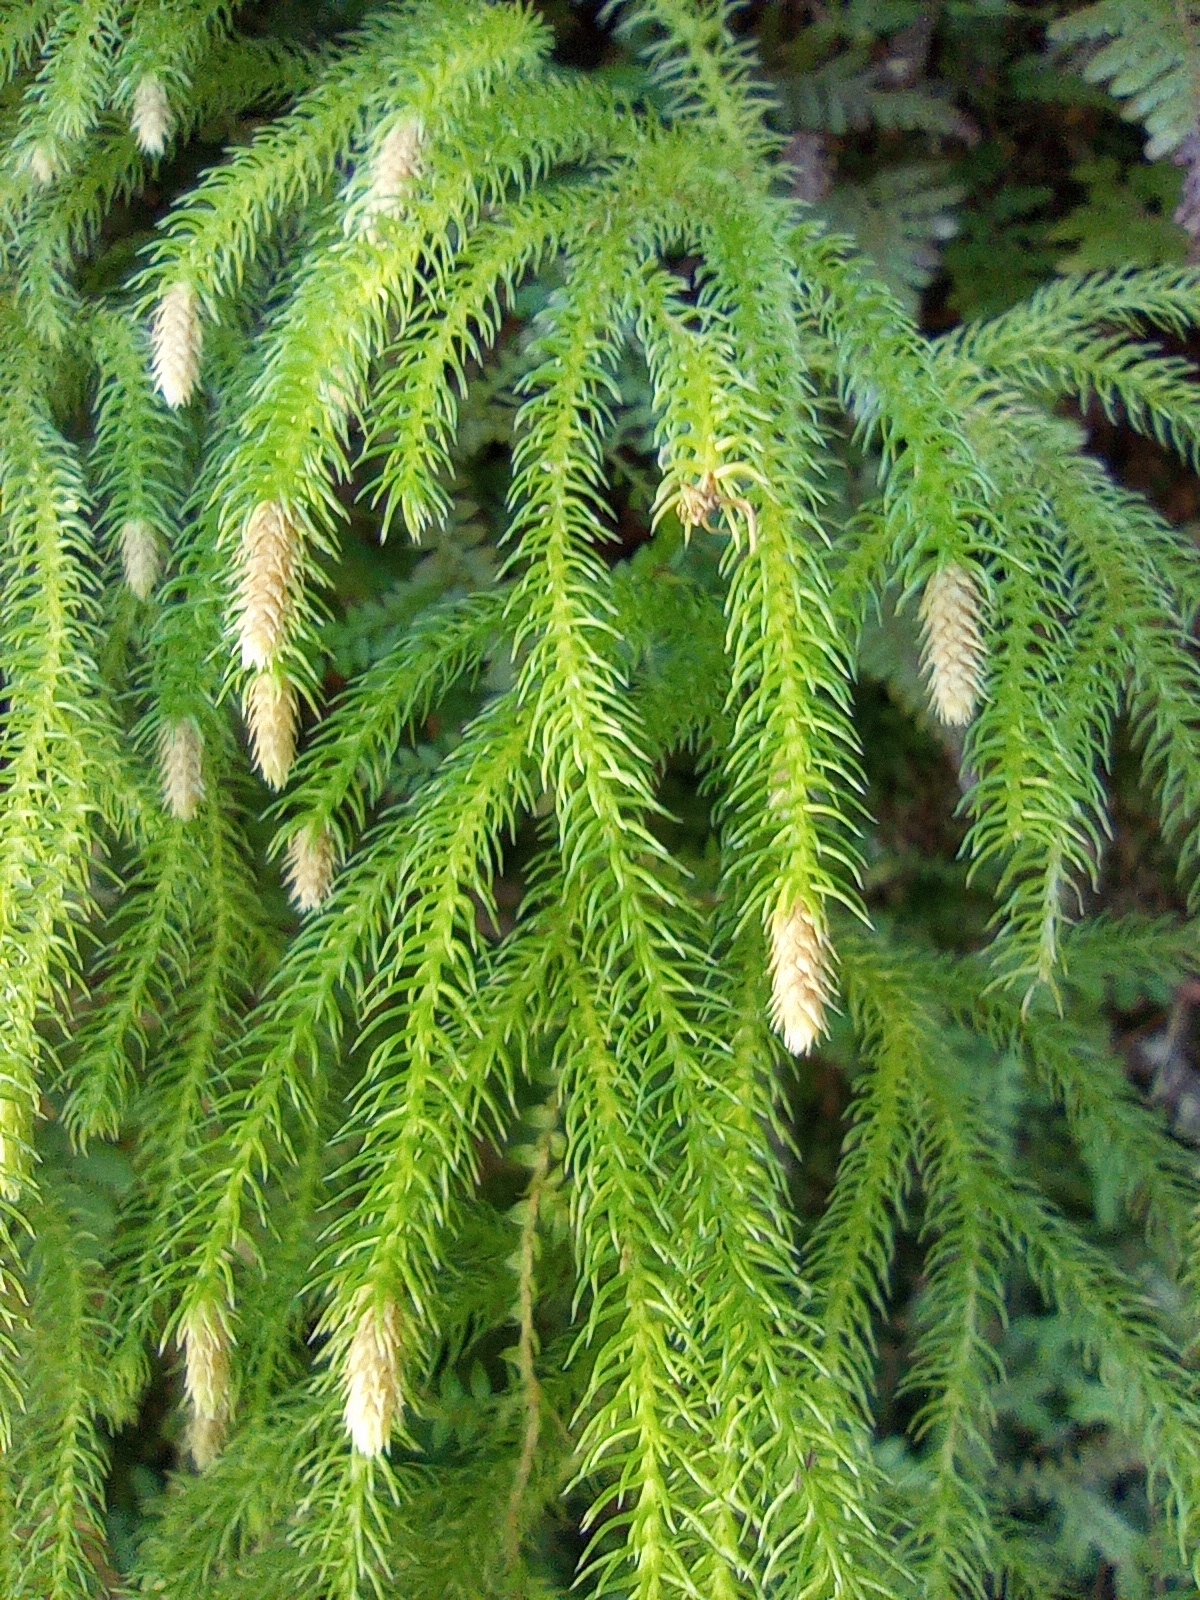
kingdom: Plantae
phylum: Tracheophyta
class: Lycopodiopsida
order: Lycopodiales
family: Lycopodiaceae
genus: Palhinhaea
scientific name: Palhinhaea cernua
